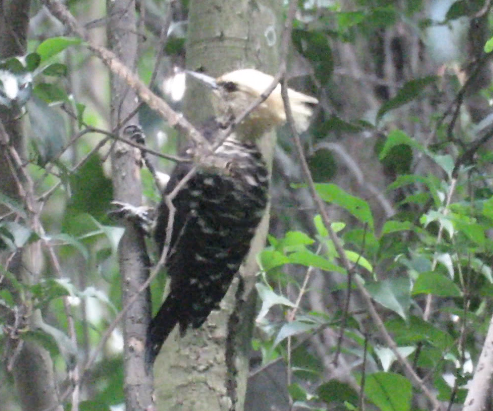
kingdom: Animalia
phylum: Chordata
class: Aves
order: Piciformes
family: Picidae
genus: Celeus
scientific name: Celeus flavescens
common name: Blond-crested woodpecker
